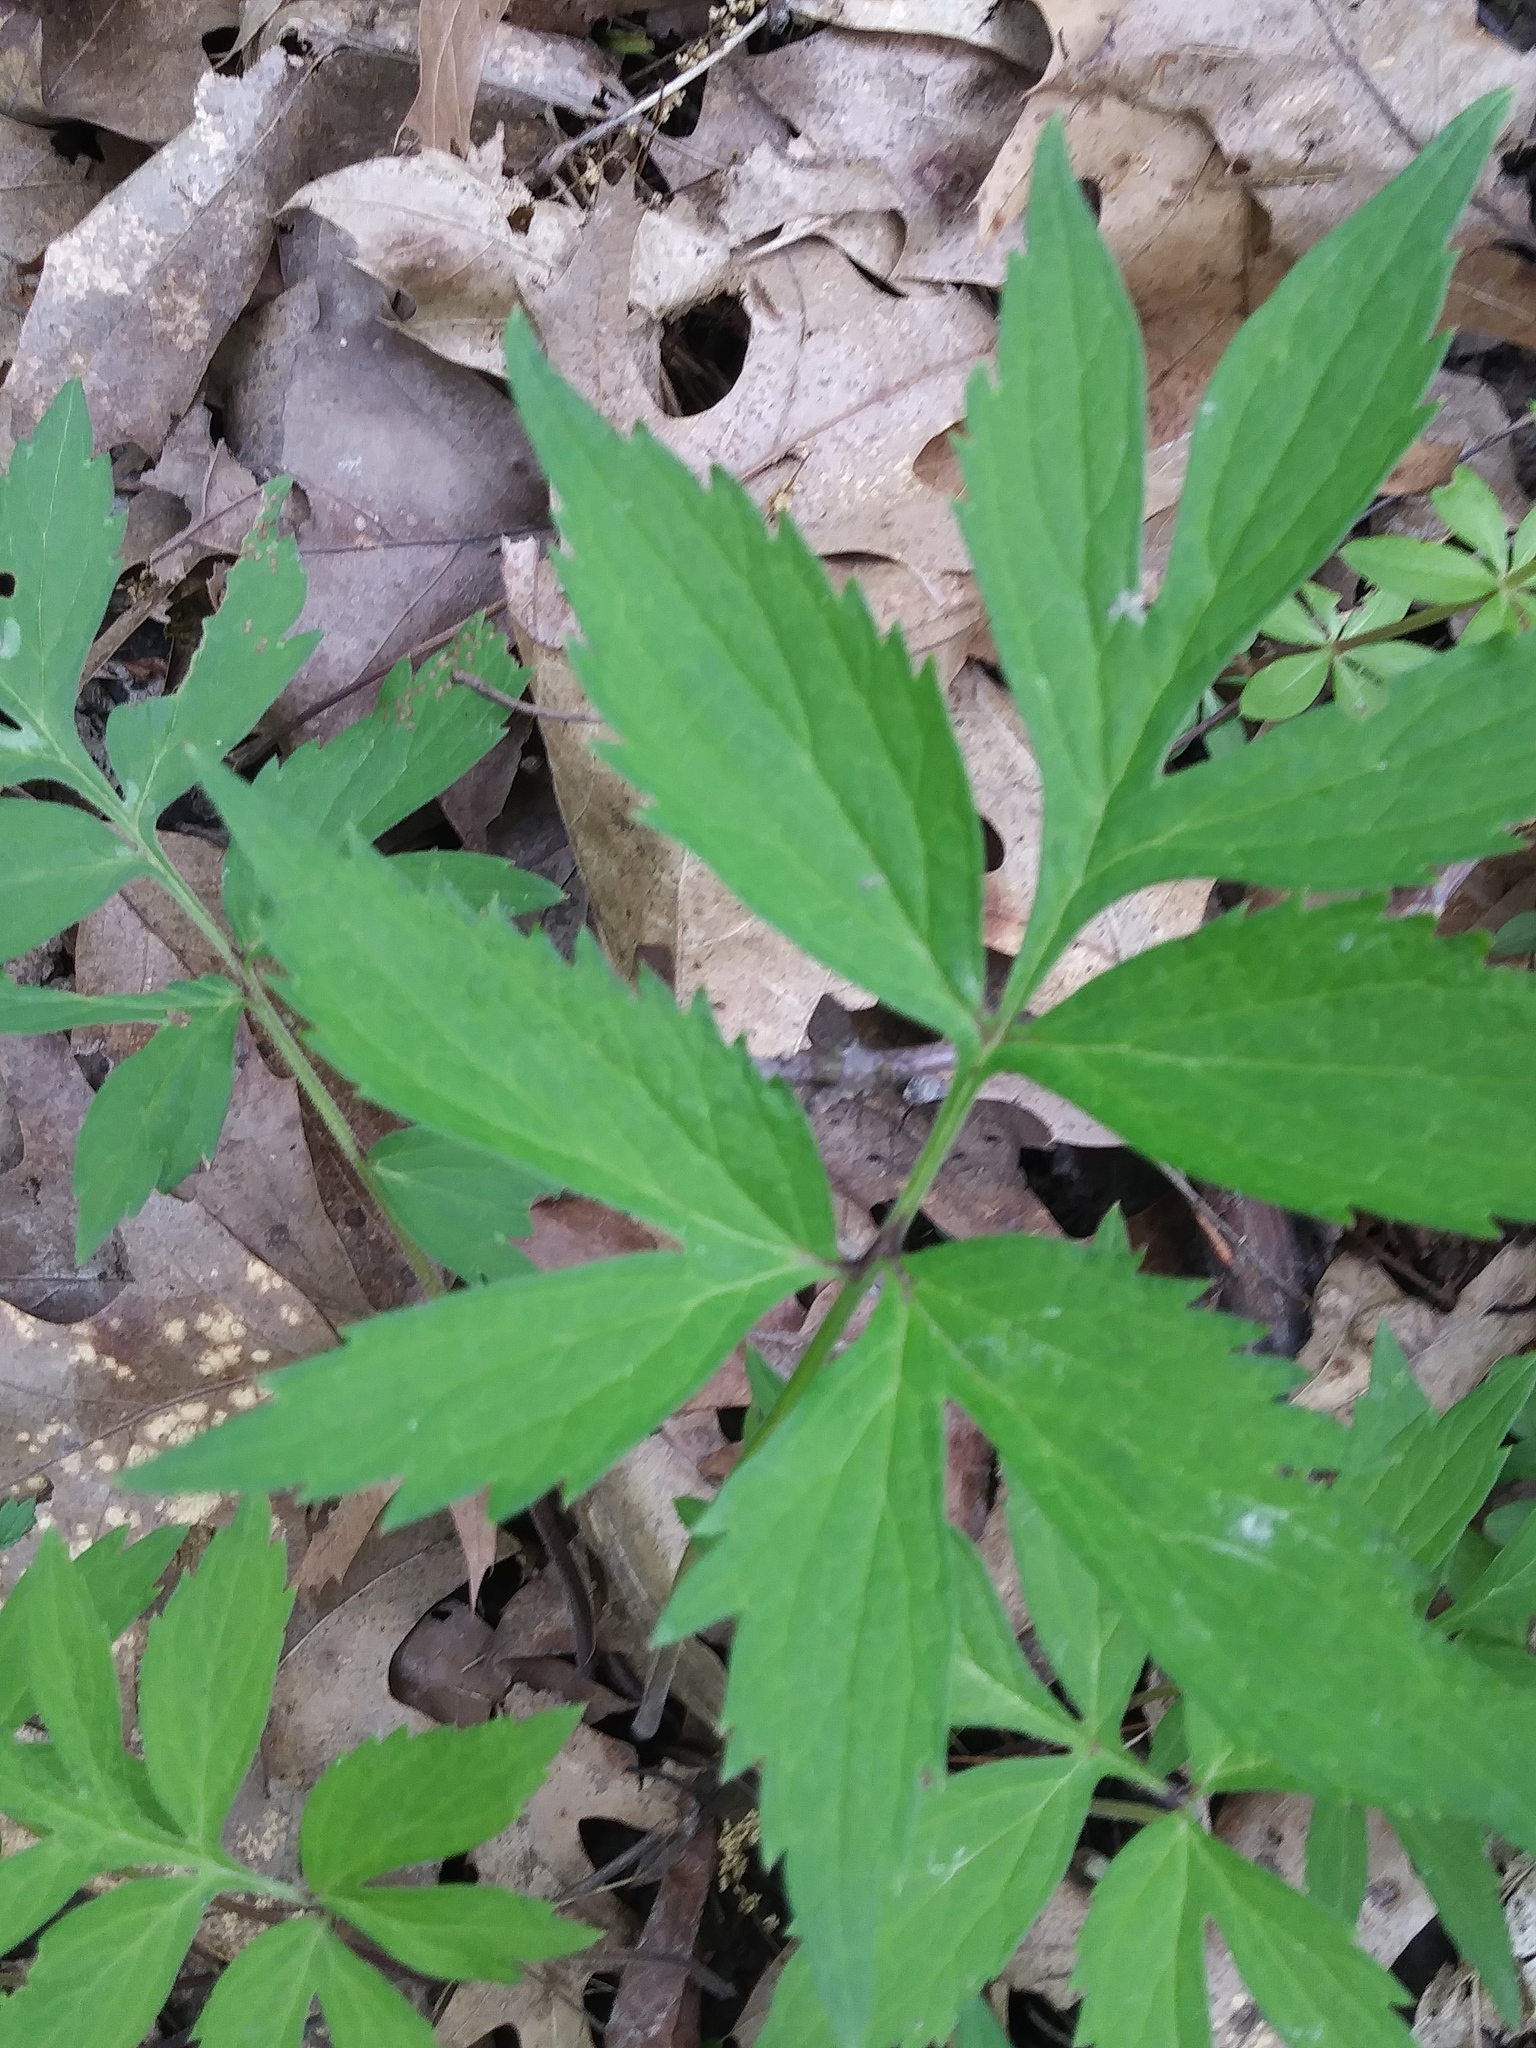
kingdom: Plantae
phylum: Tracheophyta
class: Magnoliopsida
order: Boraginales
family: Hydrophyllaceae
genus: Hydrophyllum
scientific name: Hydrophyllum virginianum
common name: Virginia waterleaf
